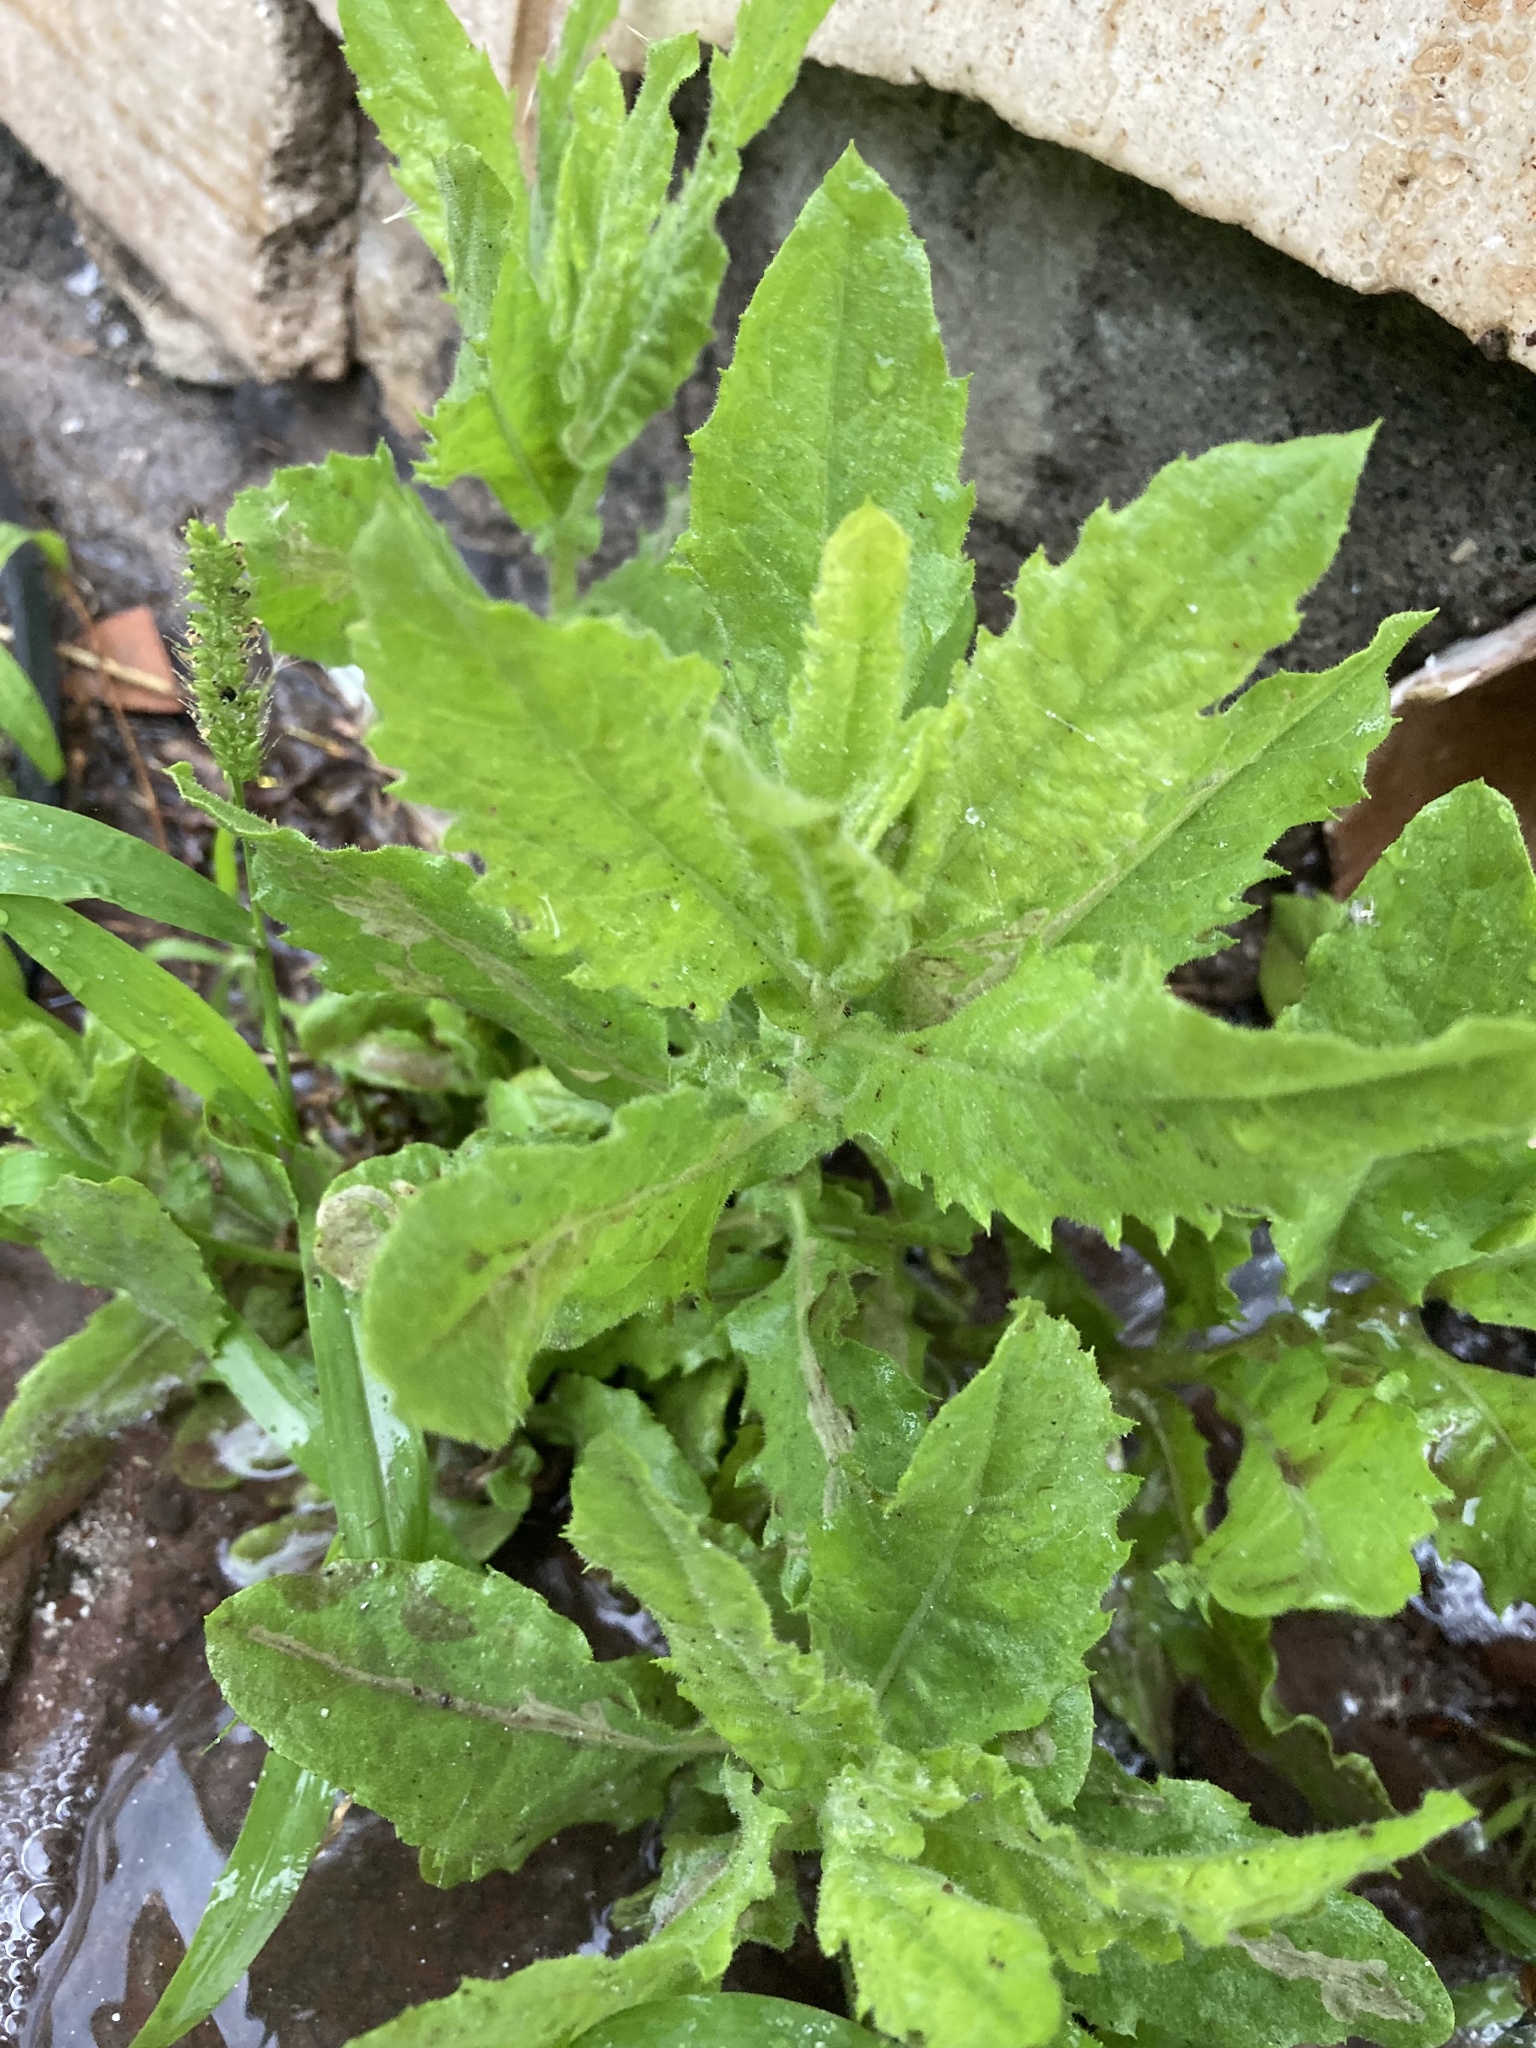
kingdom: Plantae
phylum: Tracheophyta
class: Magnoliopsida
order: Asterales
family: Asteraceae
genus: Dittrichia
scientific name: Dittrichia viscosa
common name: Woody fleabane
